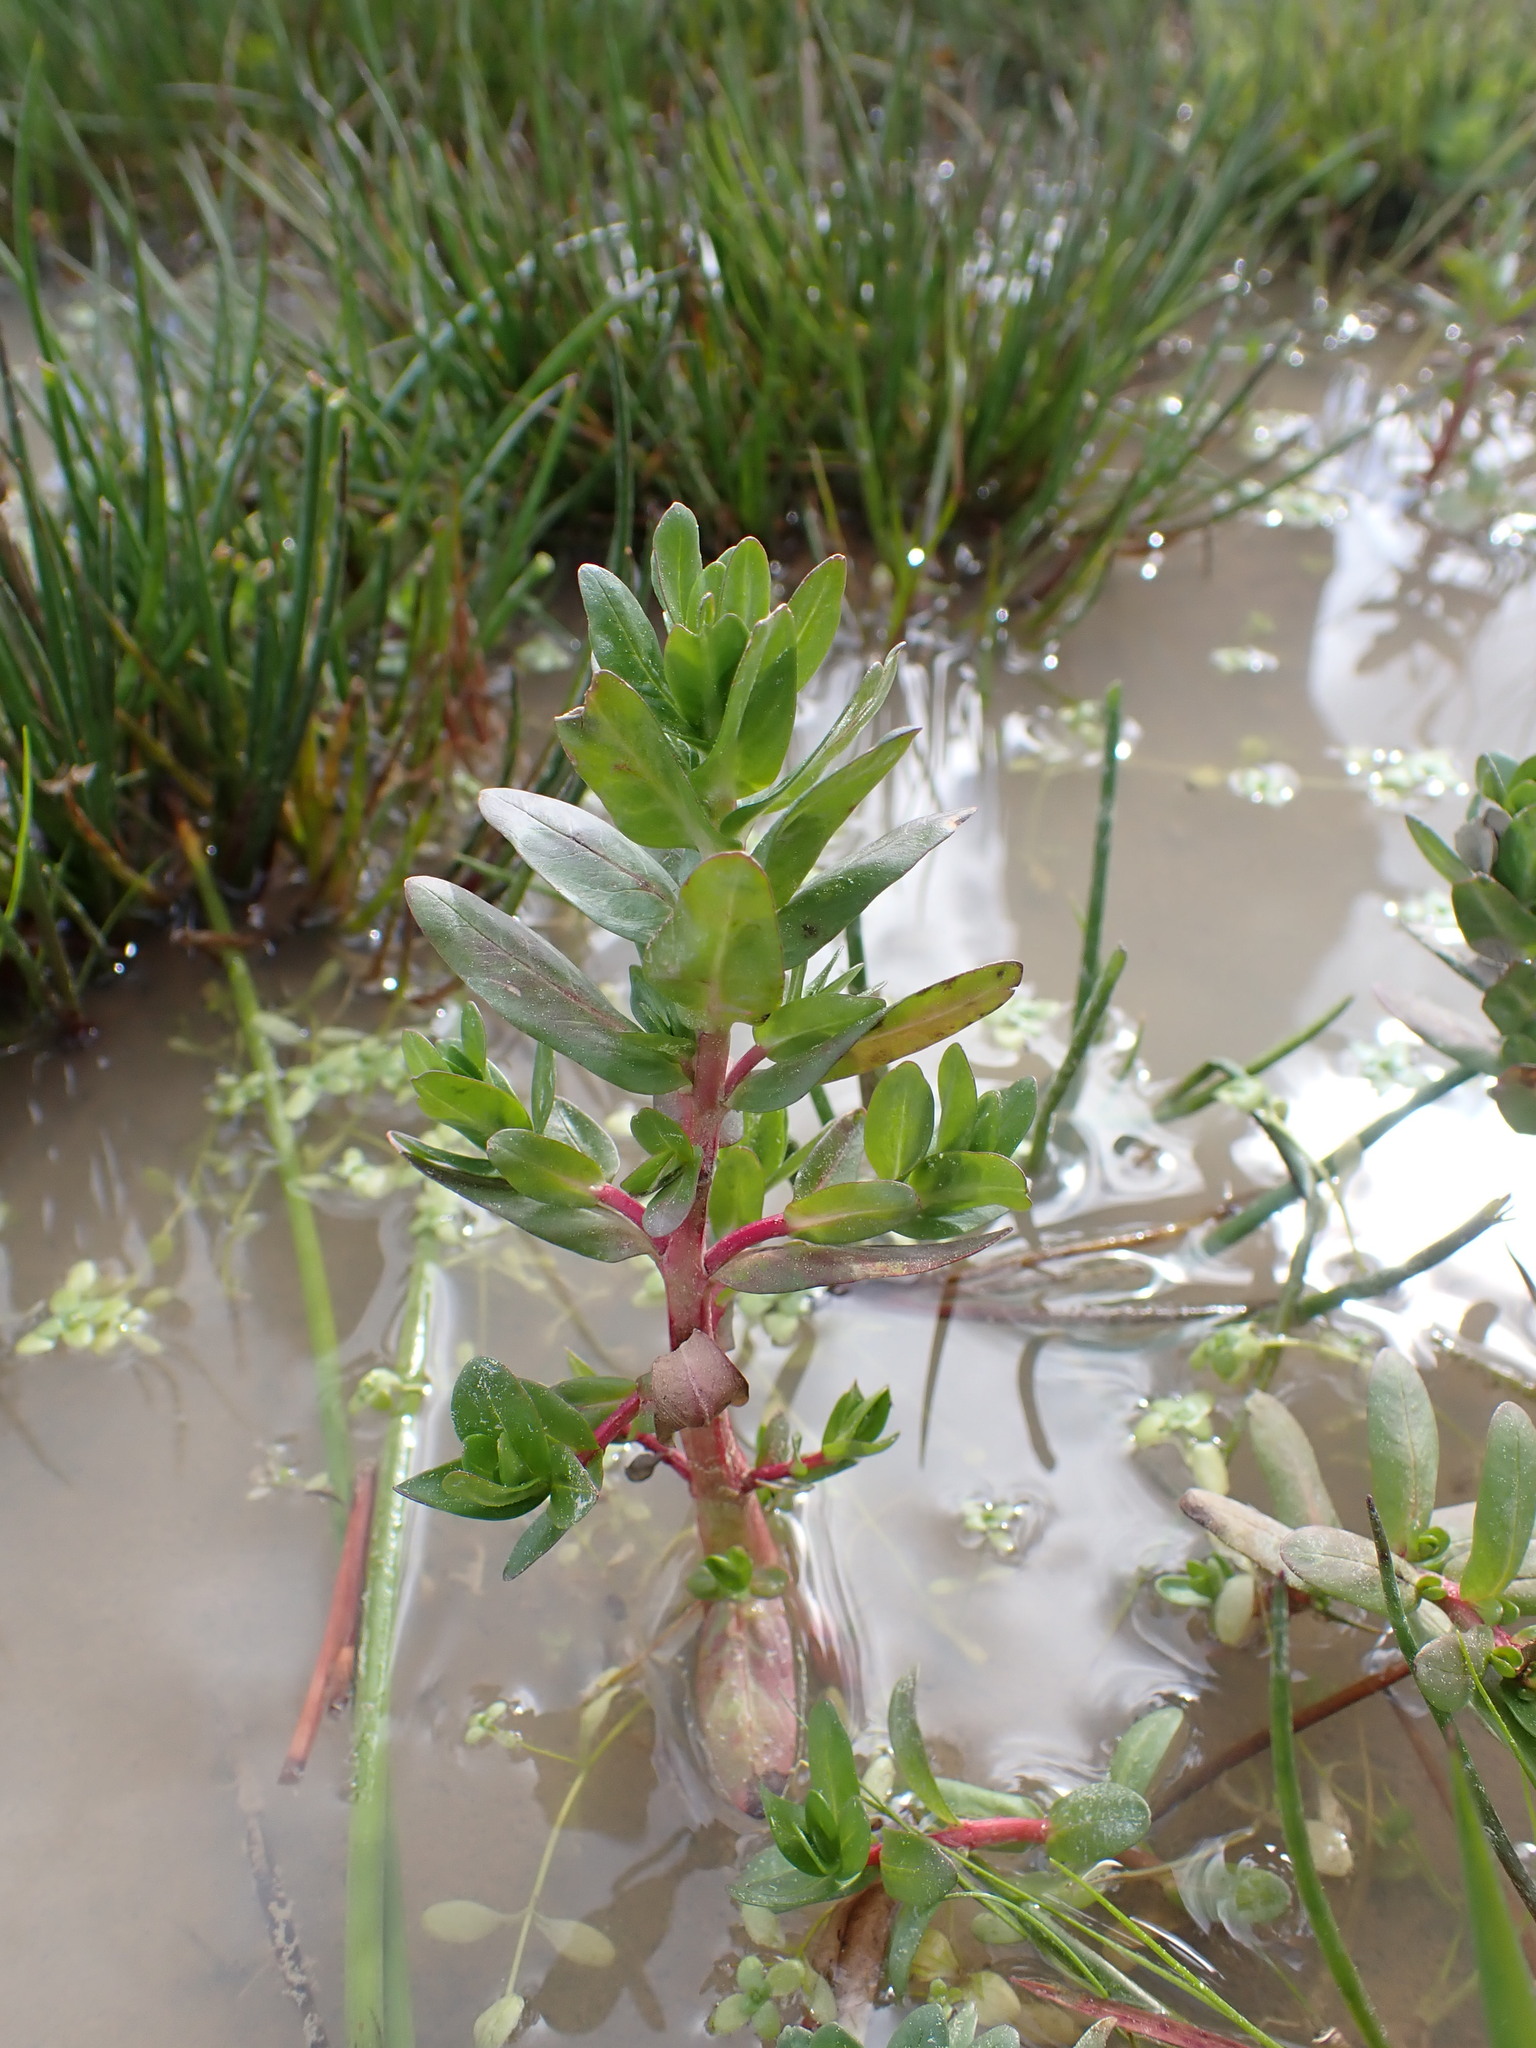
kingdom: Plantae
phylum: Tracheophyta
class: Magnoliopsida
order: Myrtales
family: Lythraceae
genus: Lythrum
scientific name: Lythrum hyssopifolia
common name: Grass-poly
